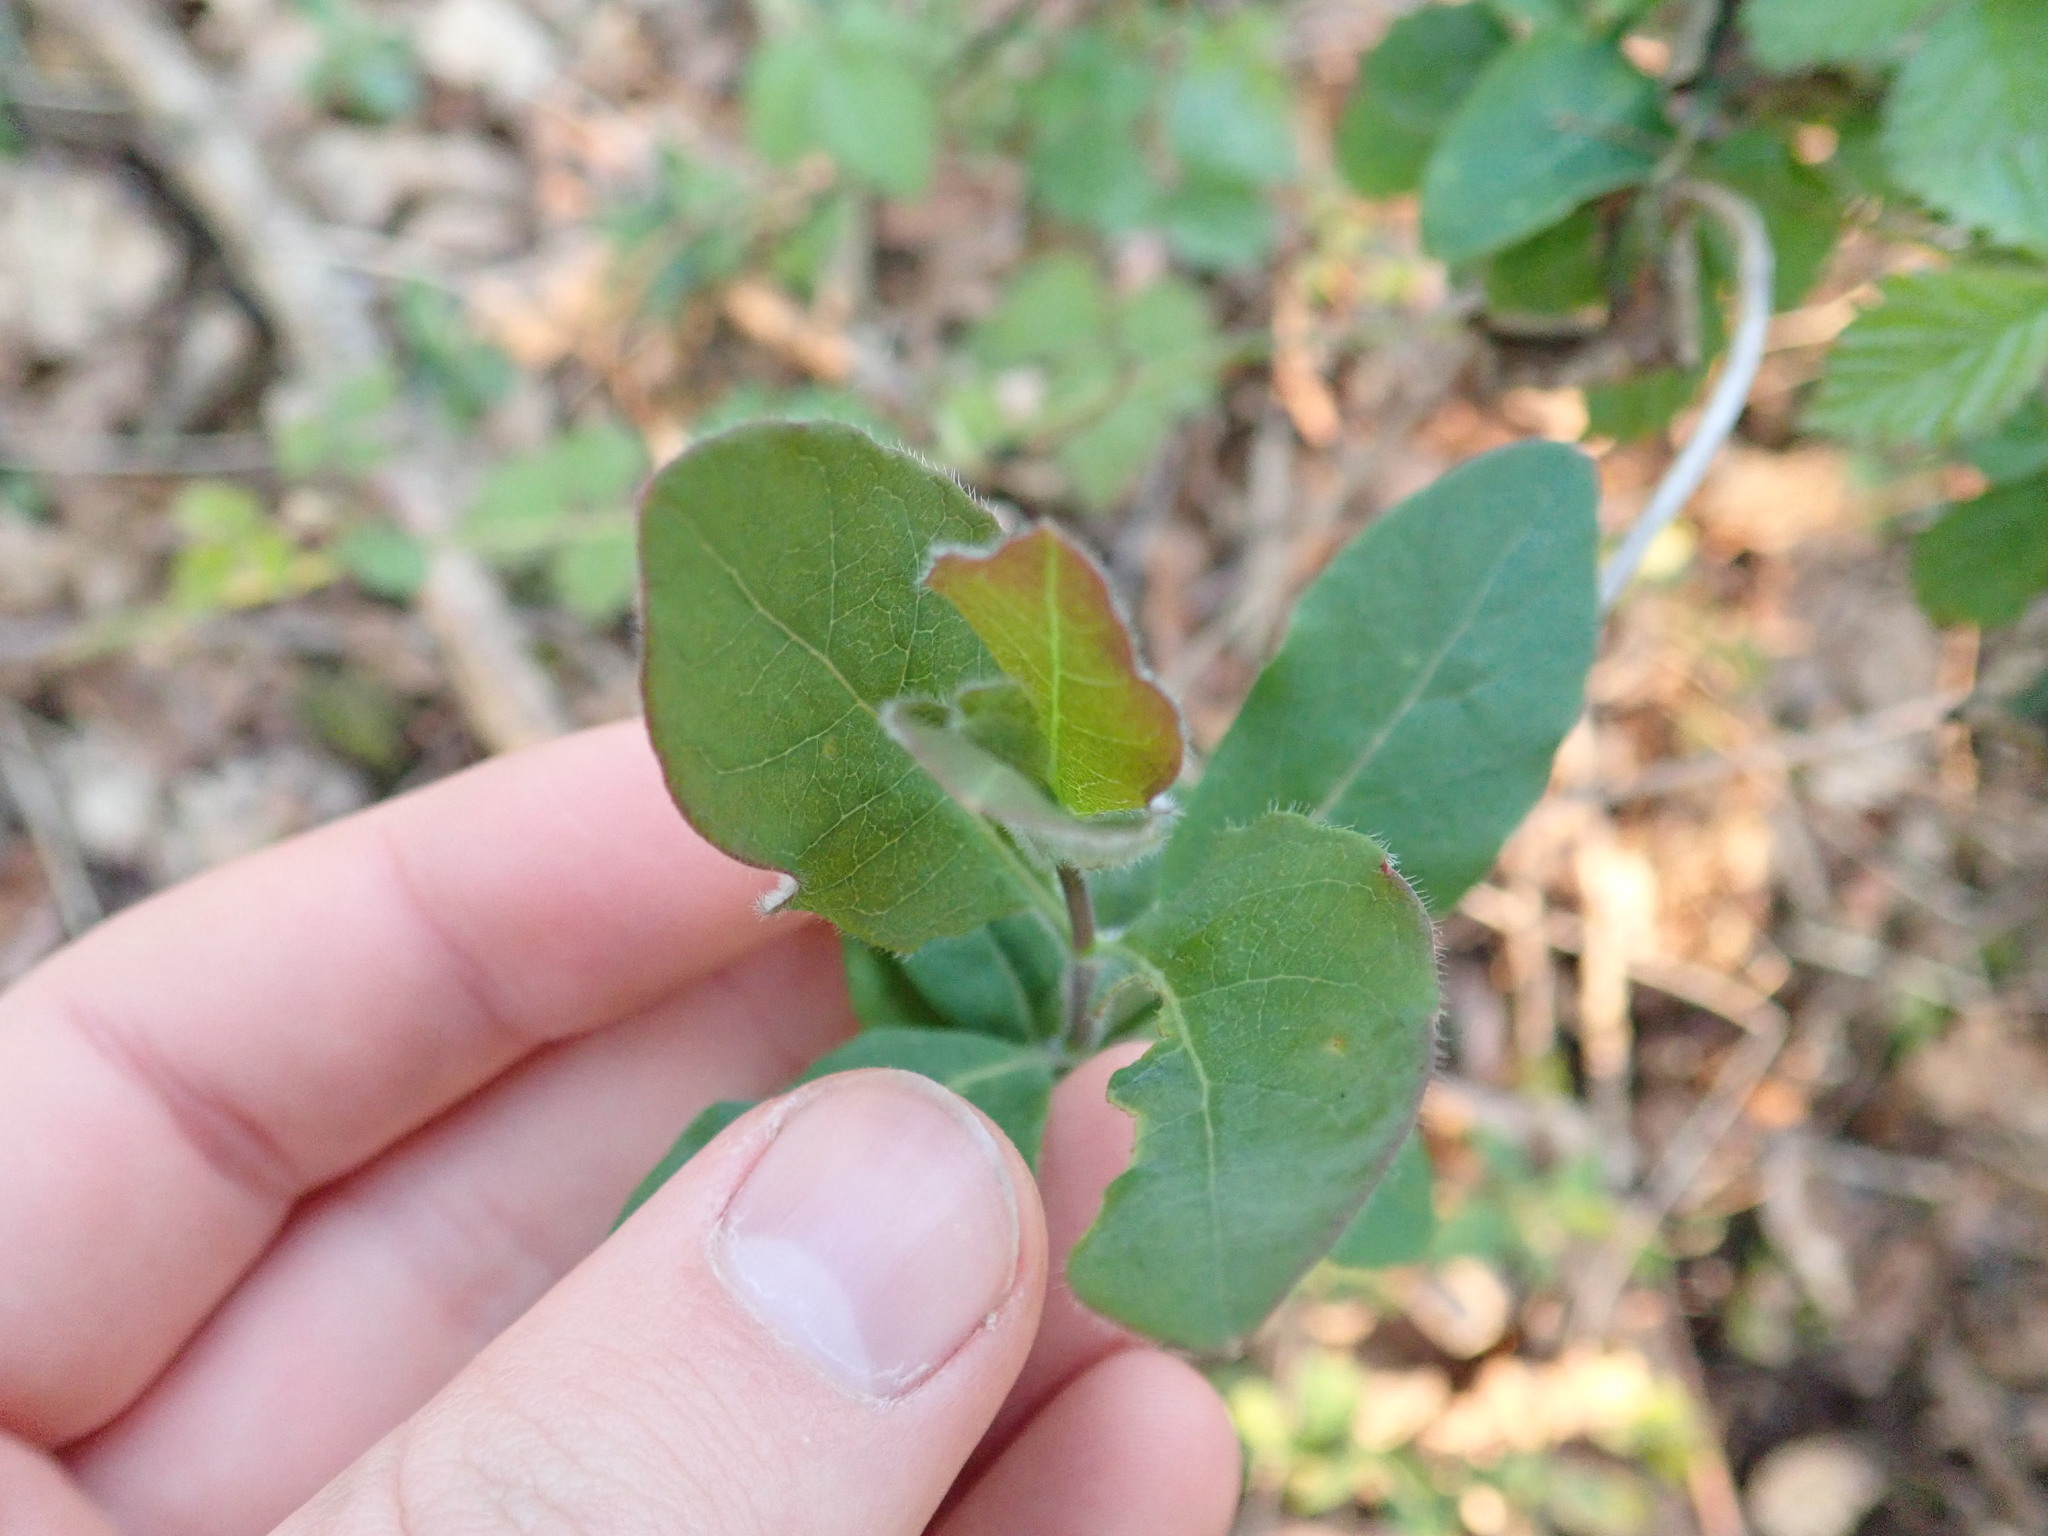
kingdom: Plantae
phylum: Tracheophyta
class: Magnoliopsida
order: Dipsacales
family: Caprifoliaceae
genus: Lonicera
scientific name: Lonicera periclymenum
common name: European honeysuckle
